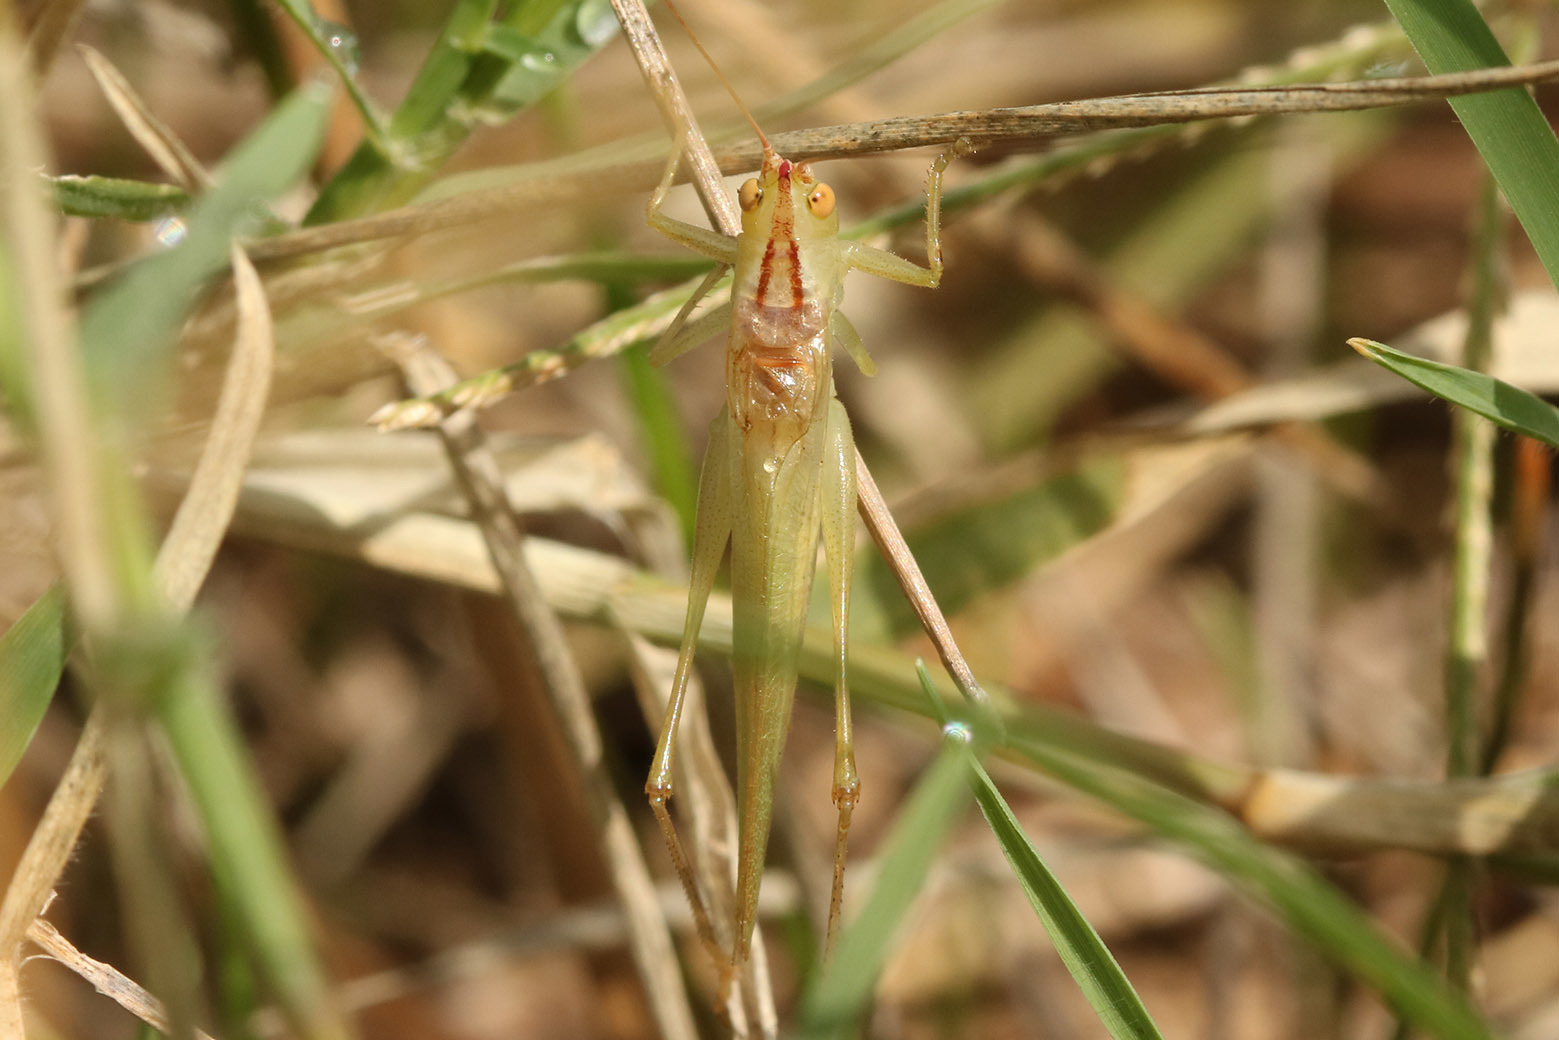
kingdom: Animalia
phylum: Arthropoda
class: Insecta
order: Orthoptera
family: Tettigoniidae
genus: Conocephalus
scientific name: Conocephalus longipes
